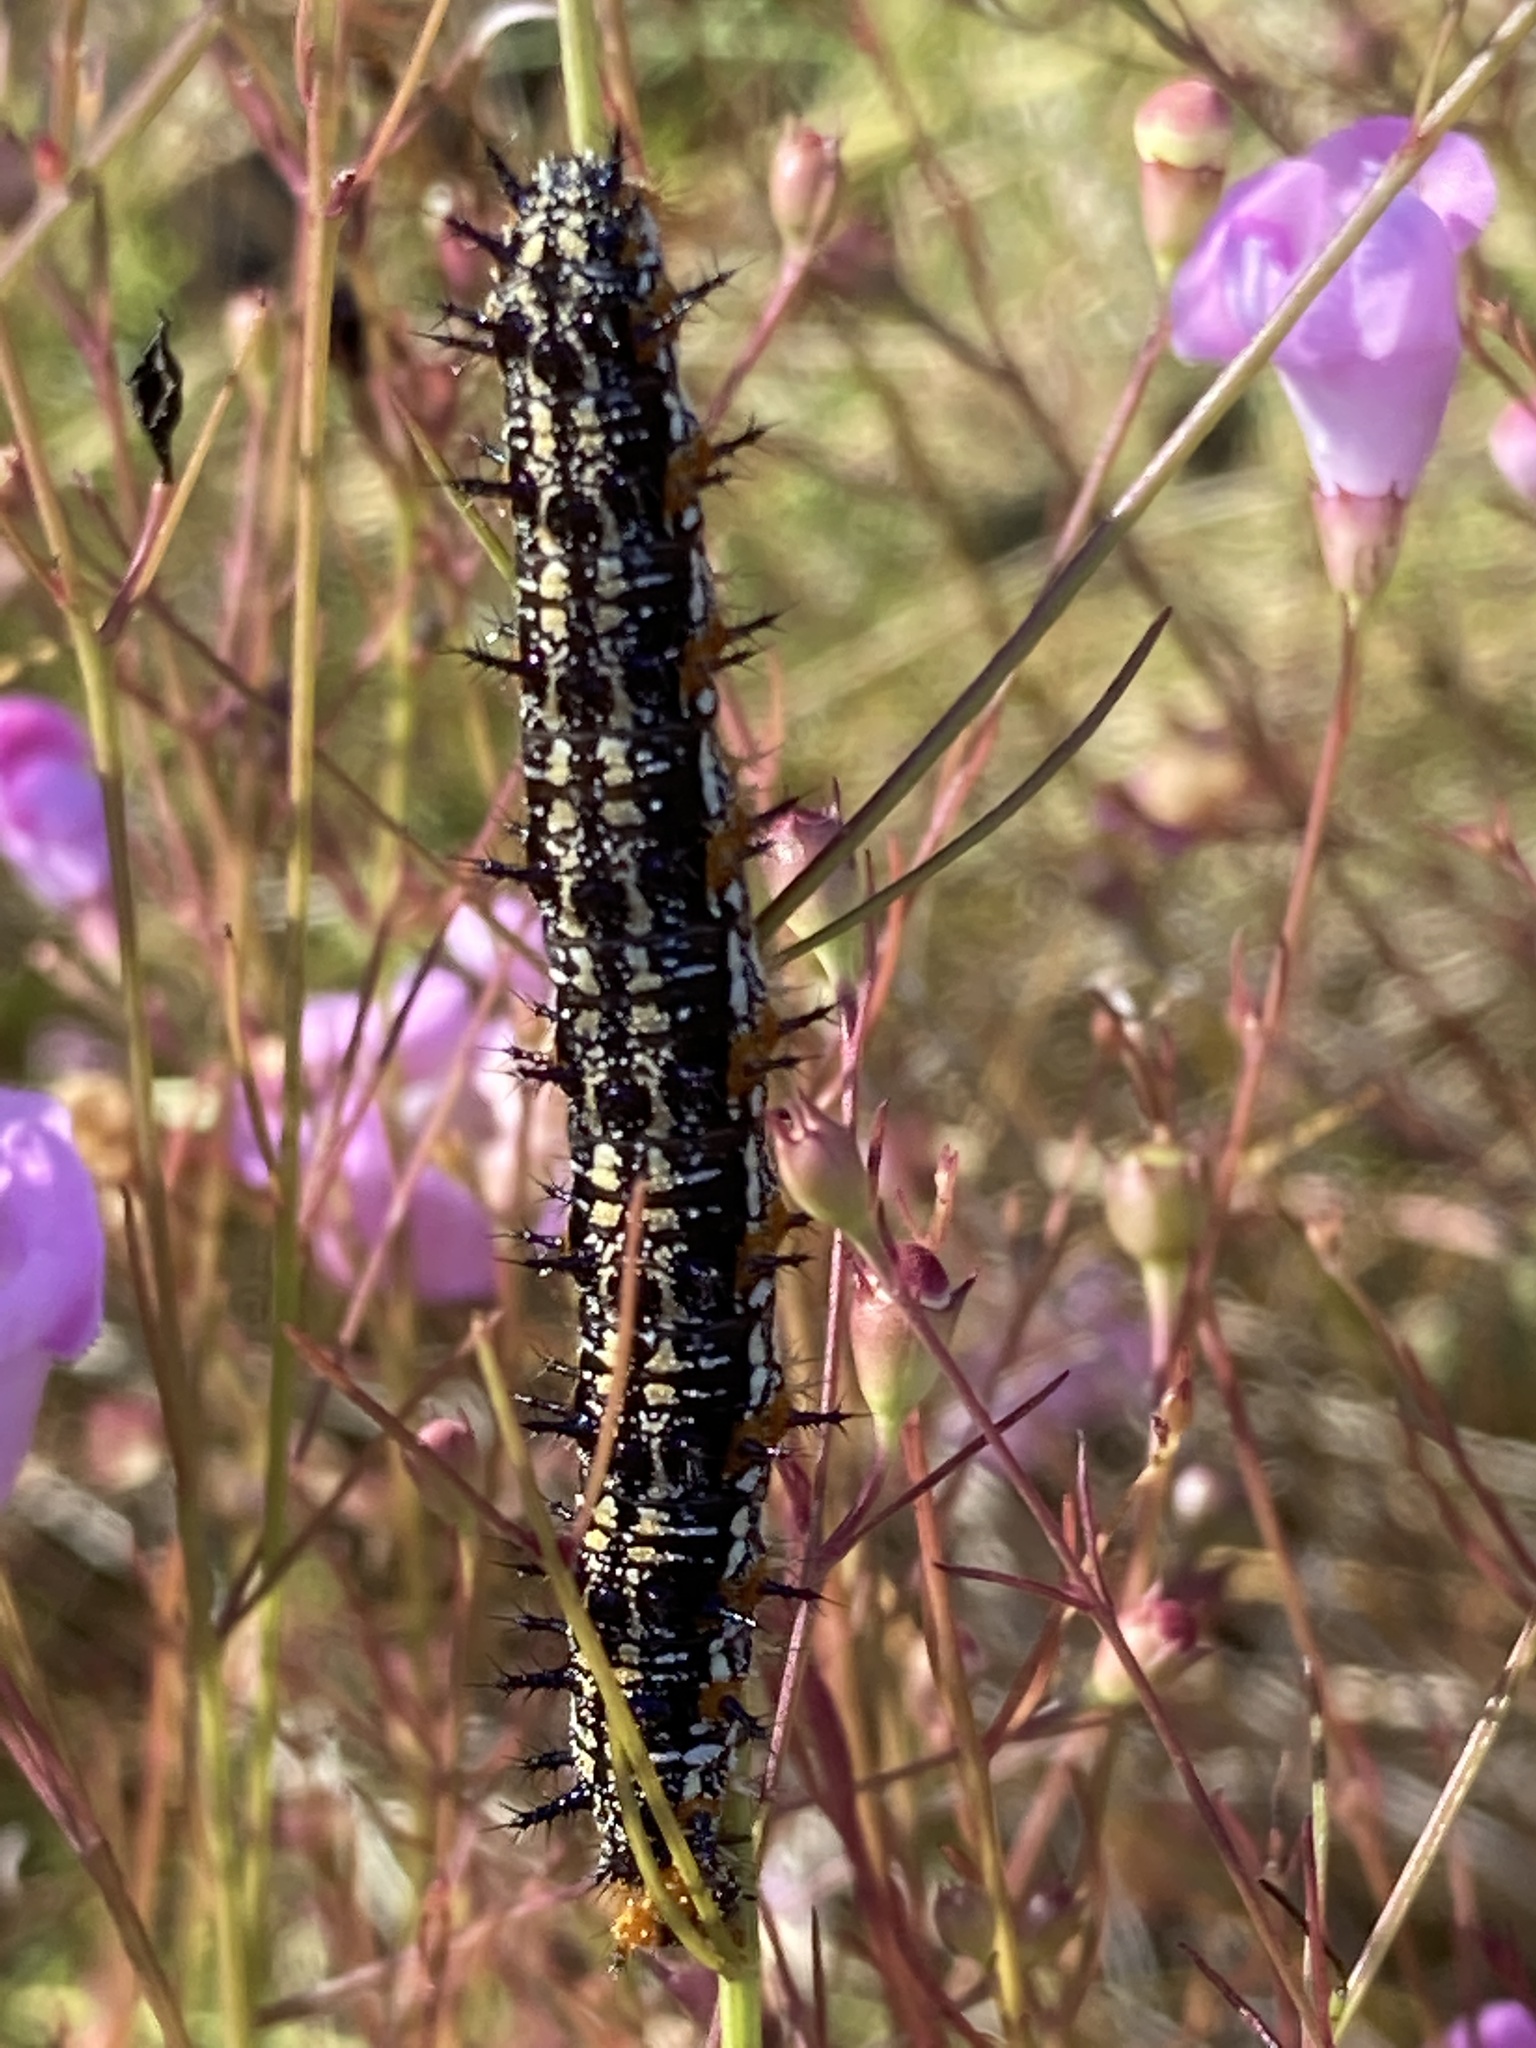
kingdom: Animalia
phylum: Arthropoda
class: Insecta
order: Lepidoptera
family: Nymphalidae
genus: Junonia
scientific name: Junonia coenia
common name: Common buckeye
